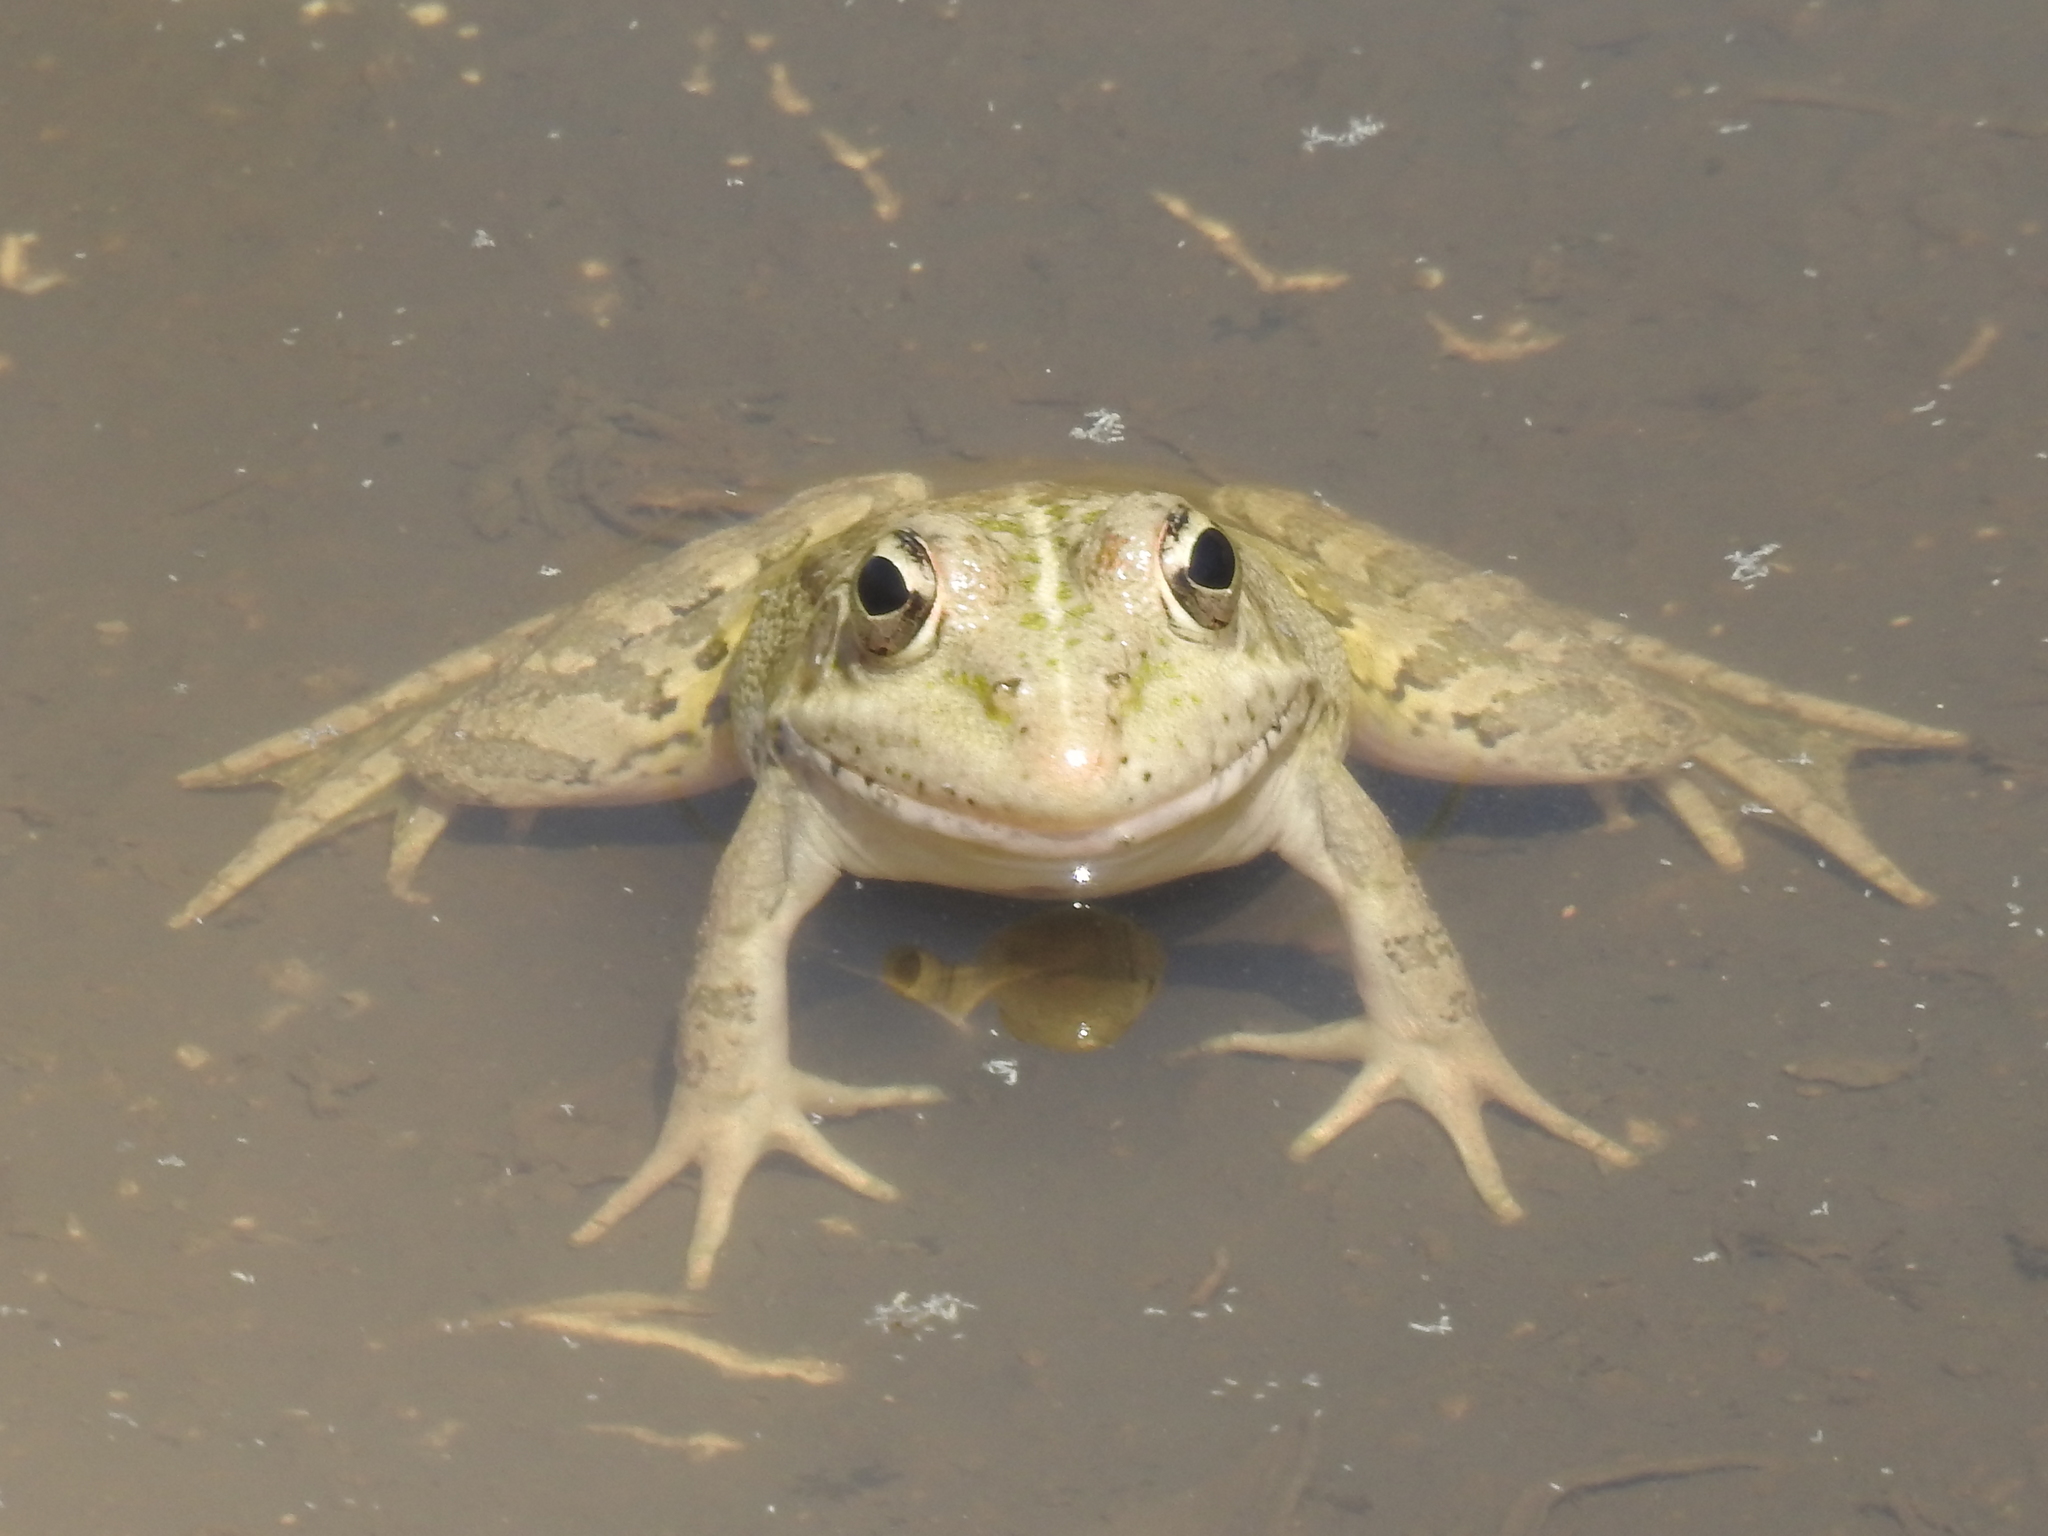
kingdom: Animalia
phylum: Chordata
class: Amphibia
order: Anura
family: Ranidae
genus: Pelophylax
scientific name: Pelophylax perezi
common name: Perez's frog
